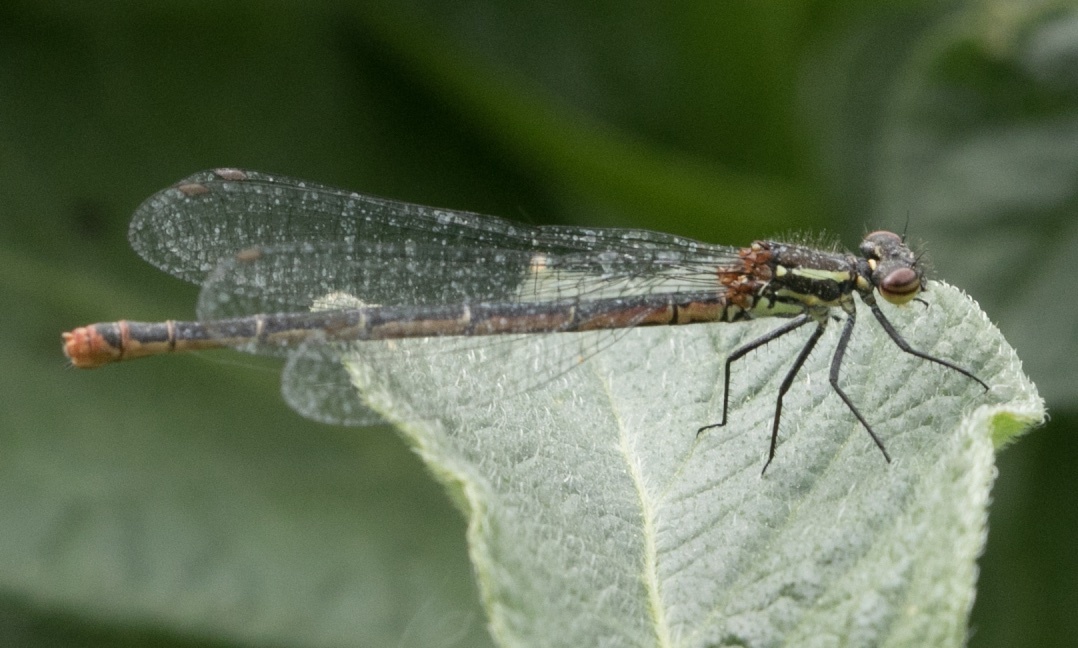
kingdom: Animalia
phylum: Arthropoda
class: Insecta
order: Odonata
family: Coenagrionidae
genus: Pyrrhosoma
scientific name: Pyrrhosoma nymphula
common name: Large red damsel
